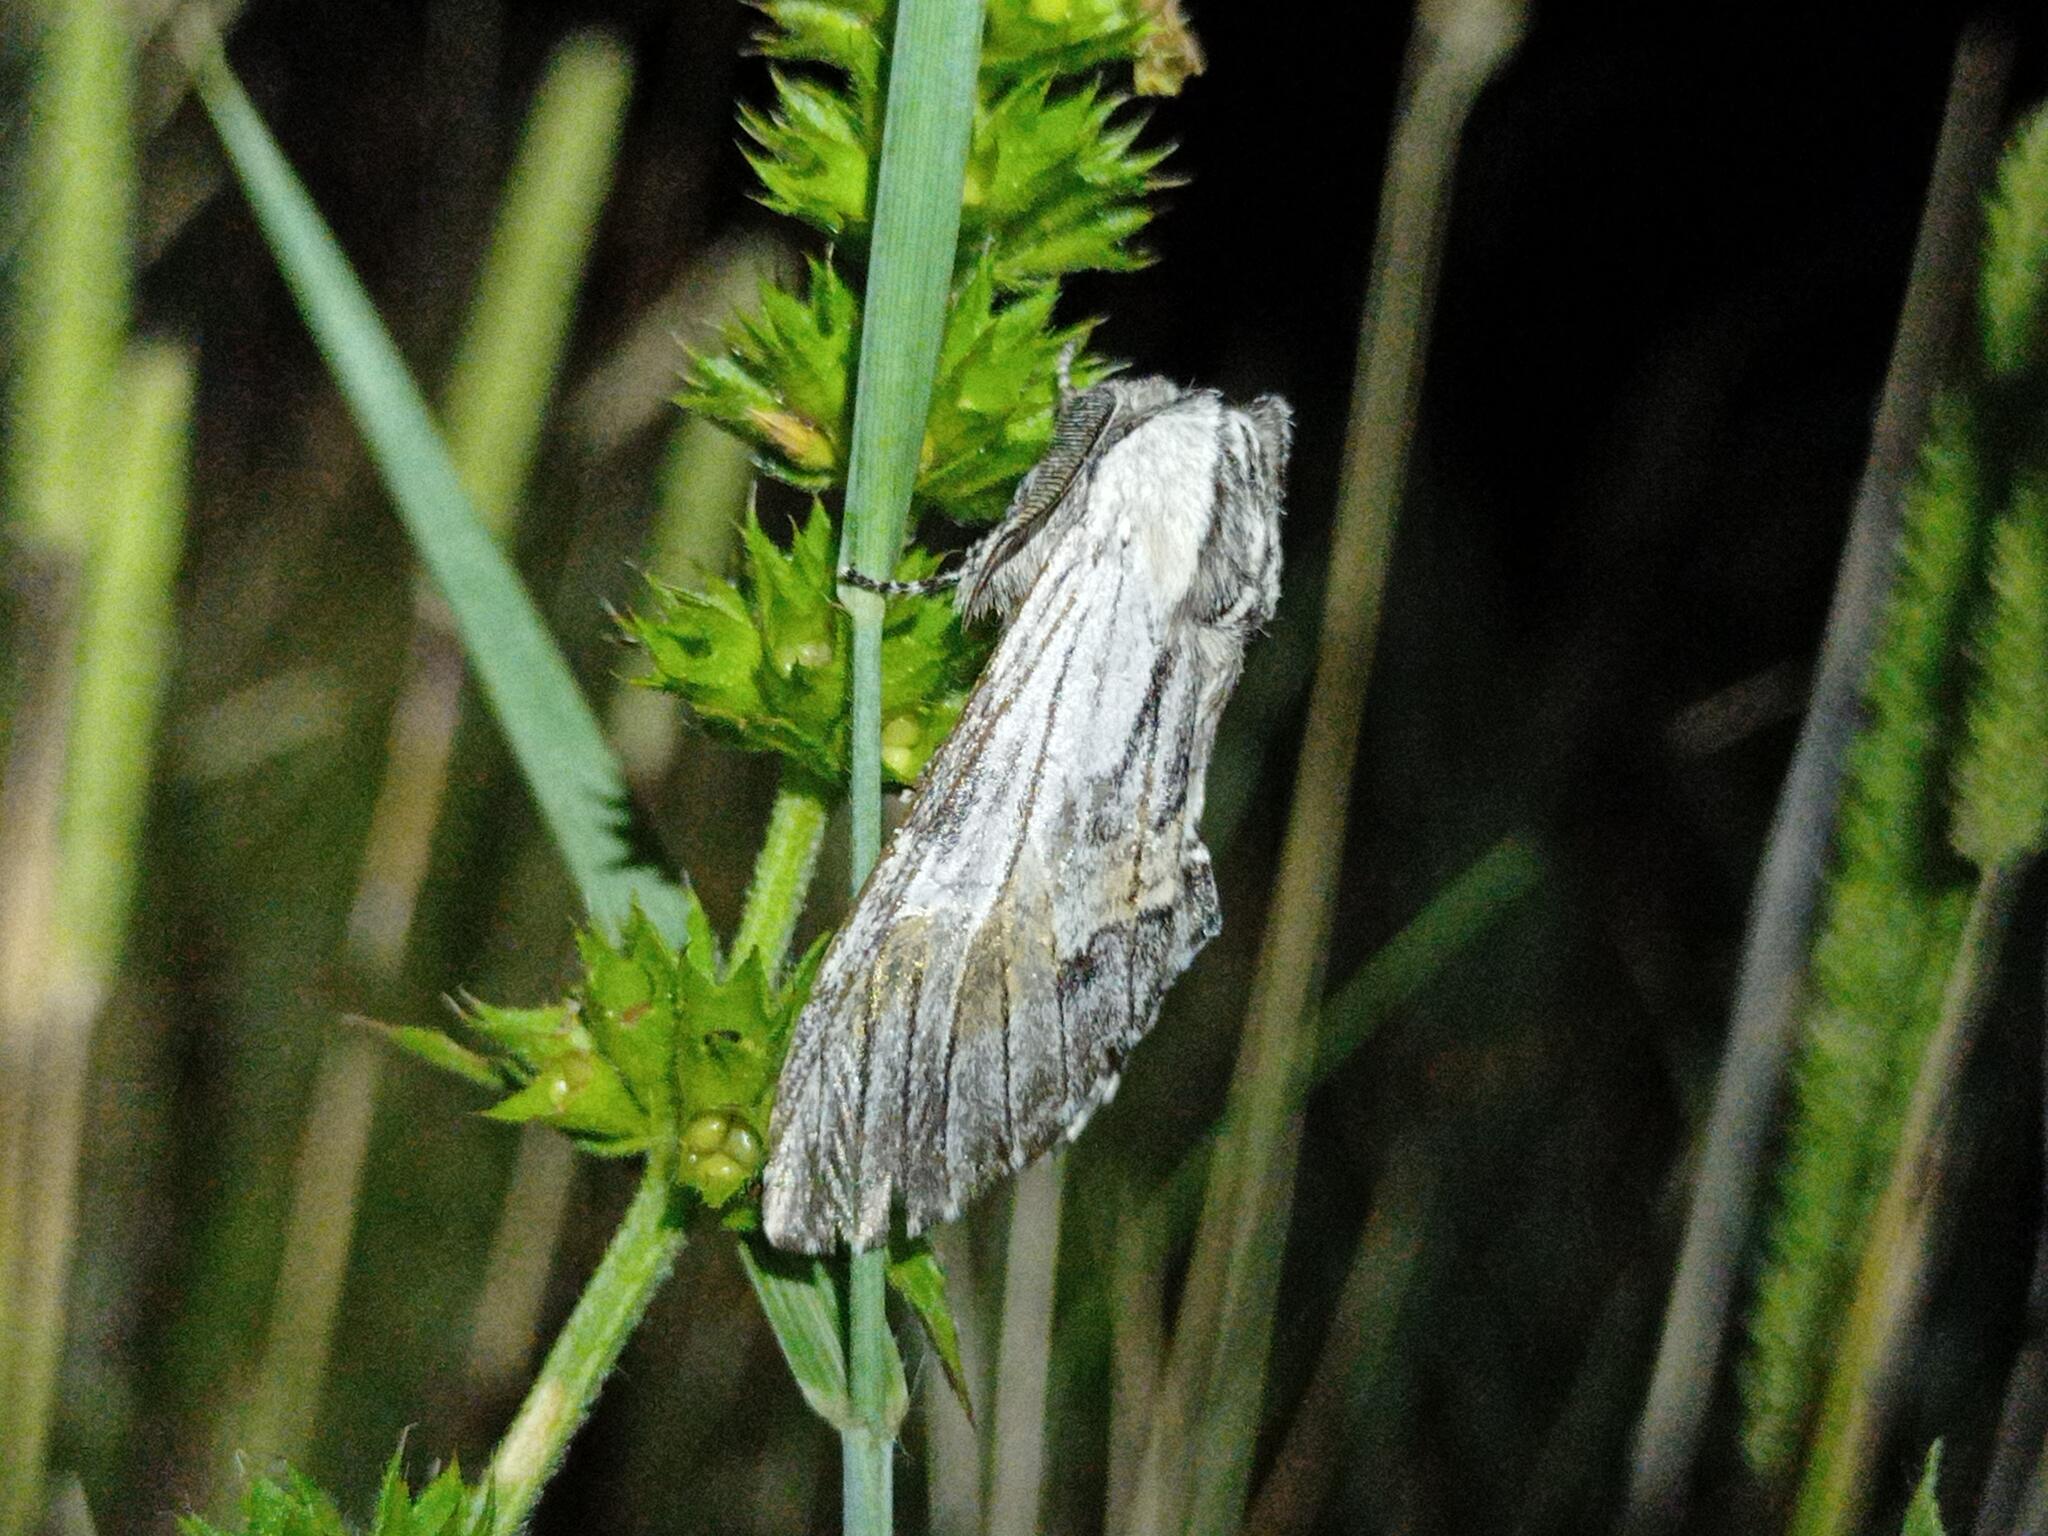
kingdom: Animalia
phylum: Arthropoda
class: Insecta
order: Lepidoptera
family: Notodontidae
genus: Harpyia
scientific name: Harpyia milhauseri
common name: Tawny prominent
